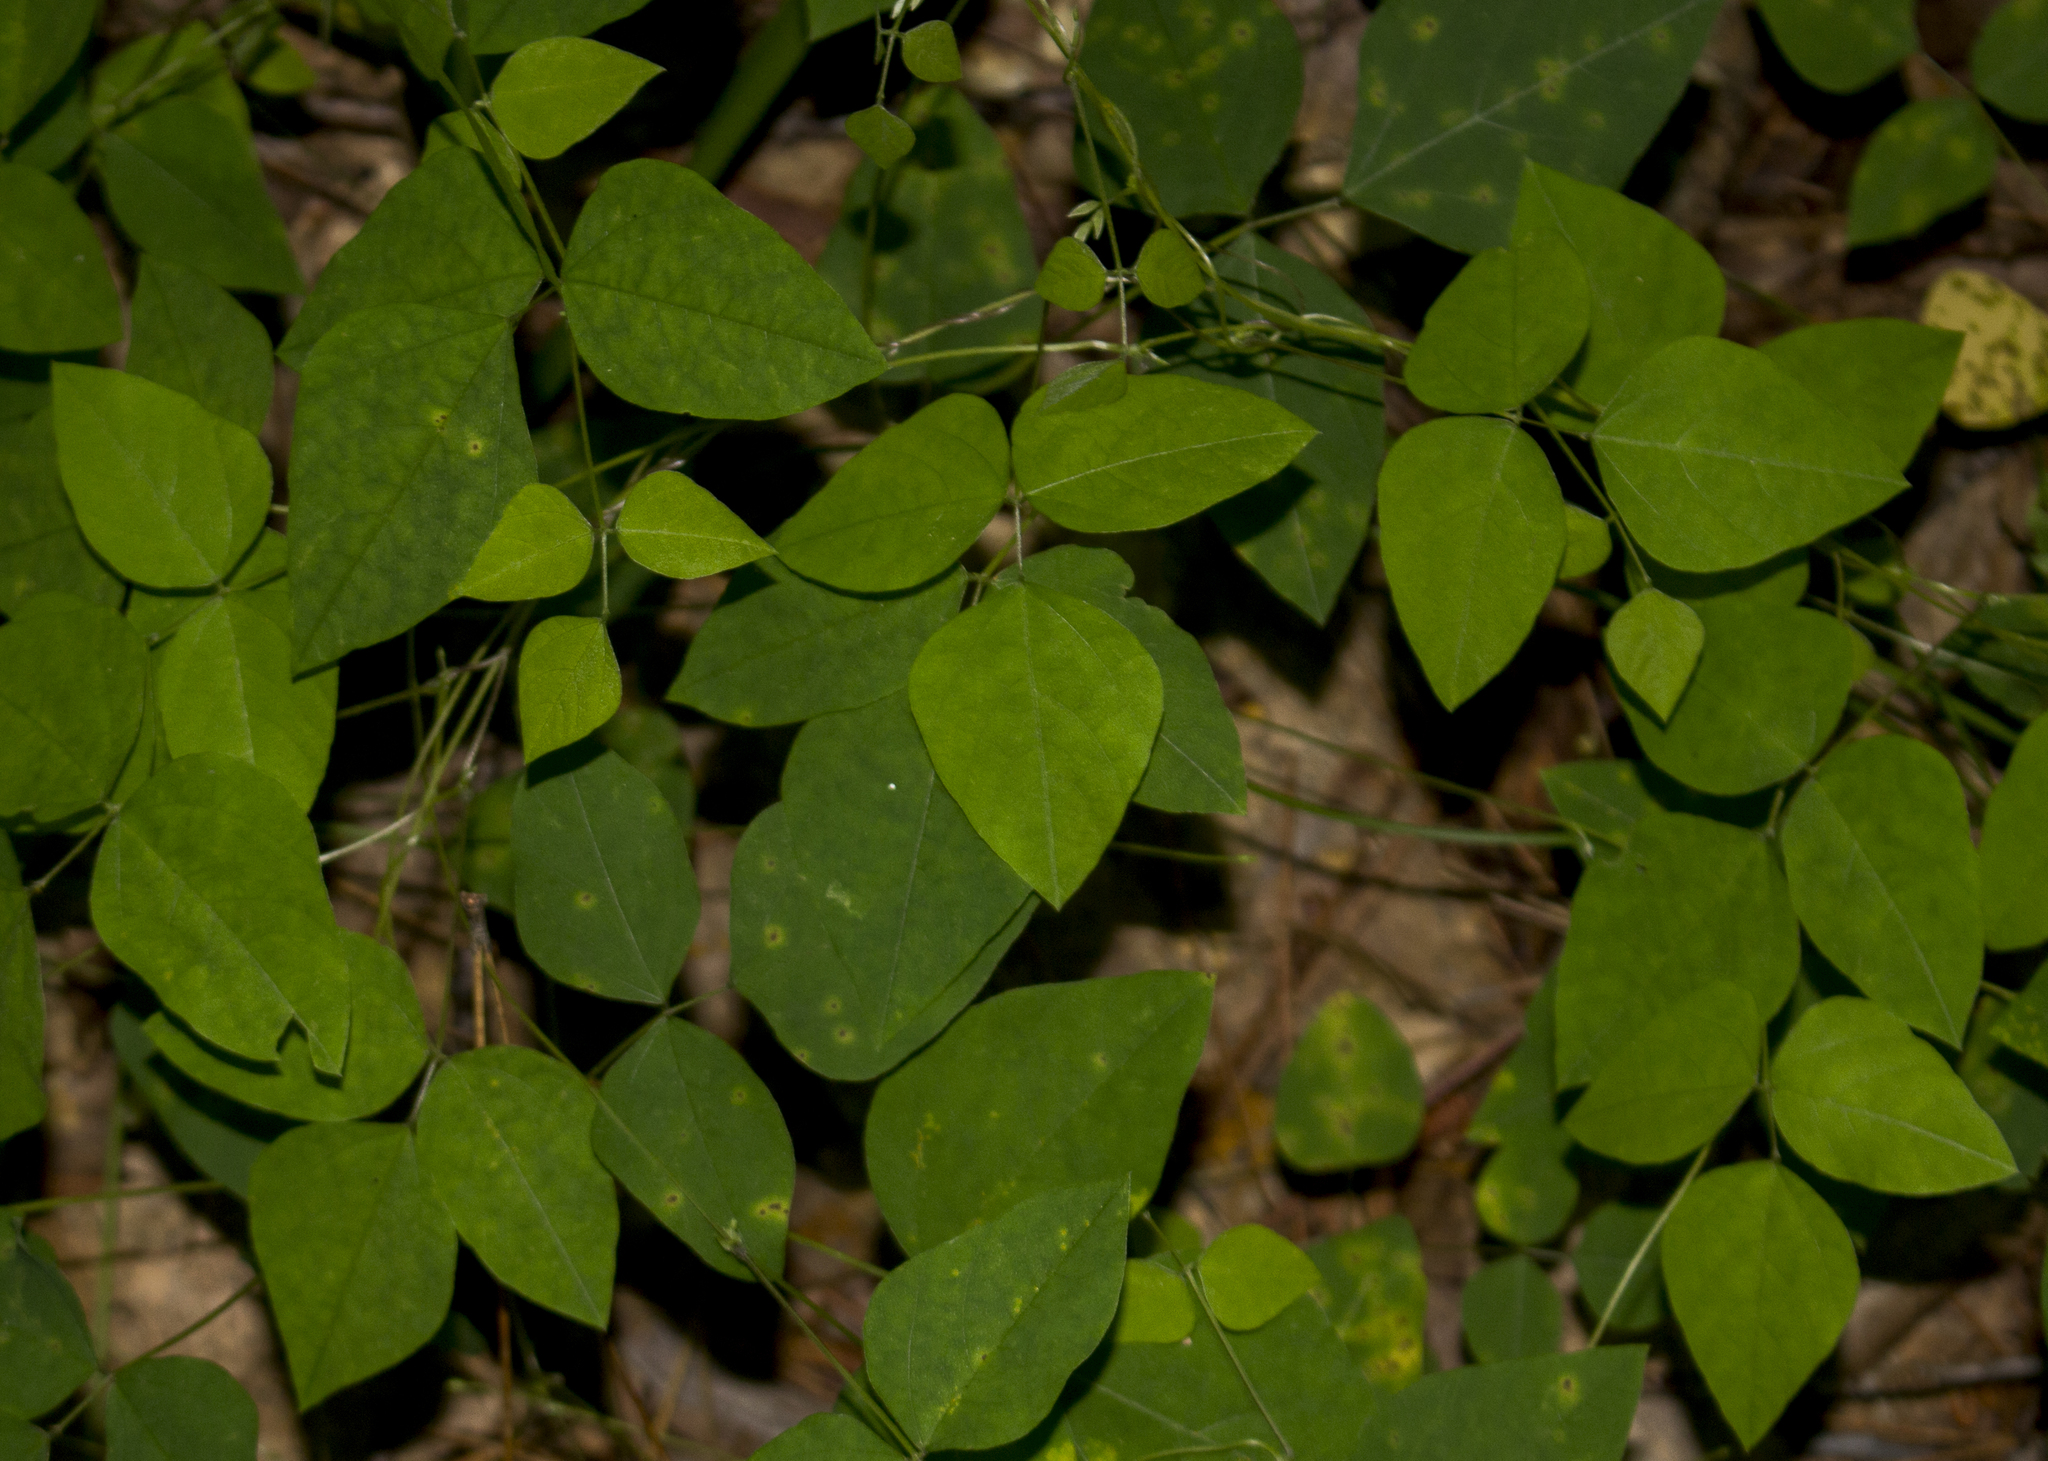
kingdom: Plantae
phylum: Tracheophyta
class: Magnoliopsida
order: Fabales
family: Fabaceae
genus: Amphicarpaea
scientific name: Amphicarpaea bracteata
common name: American hog peanut
